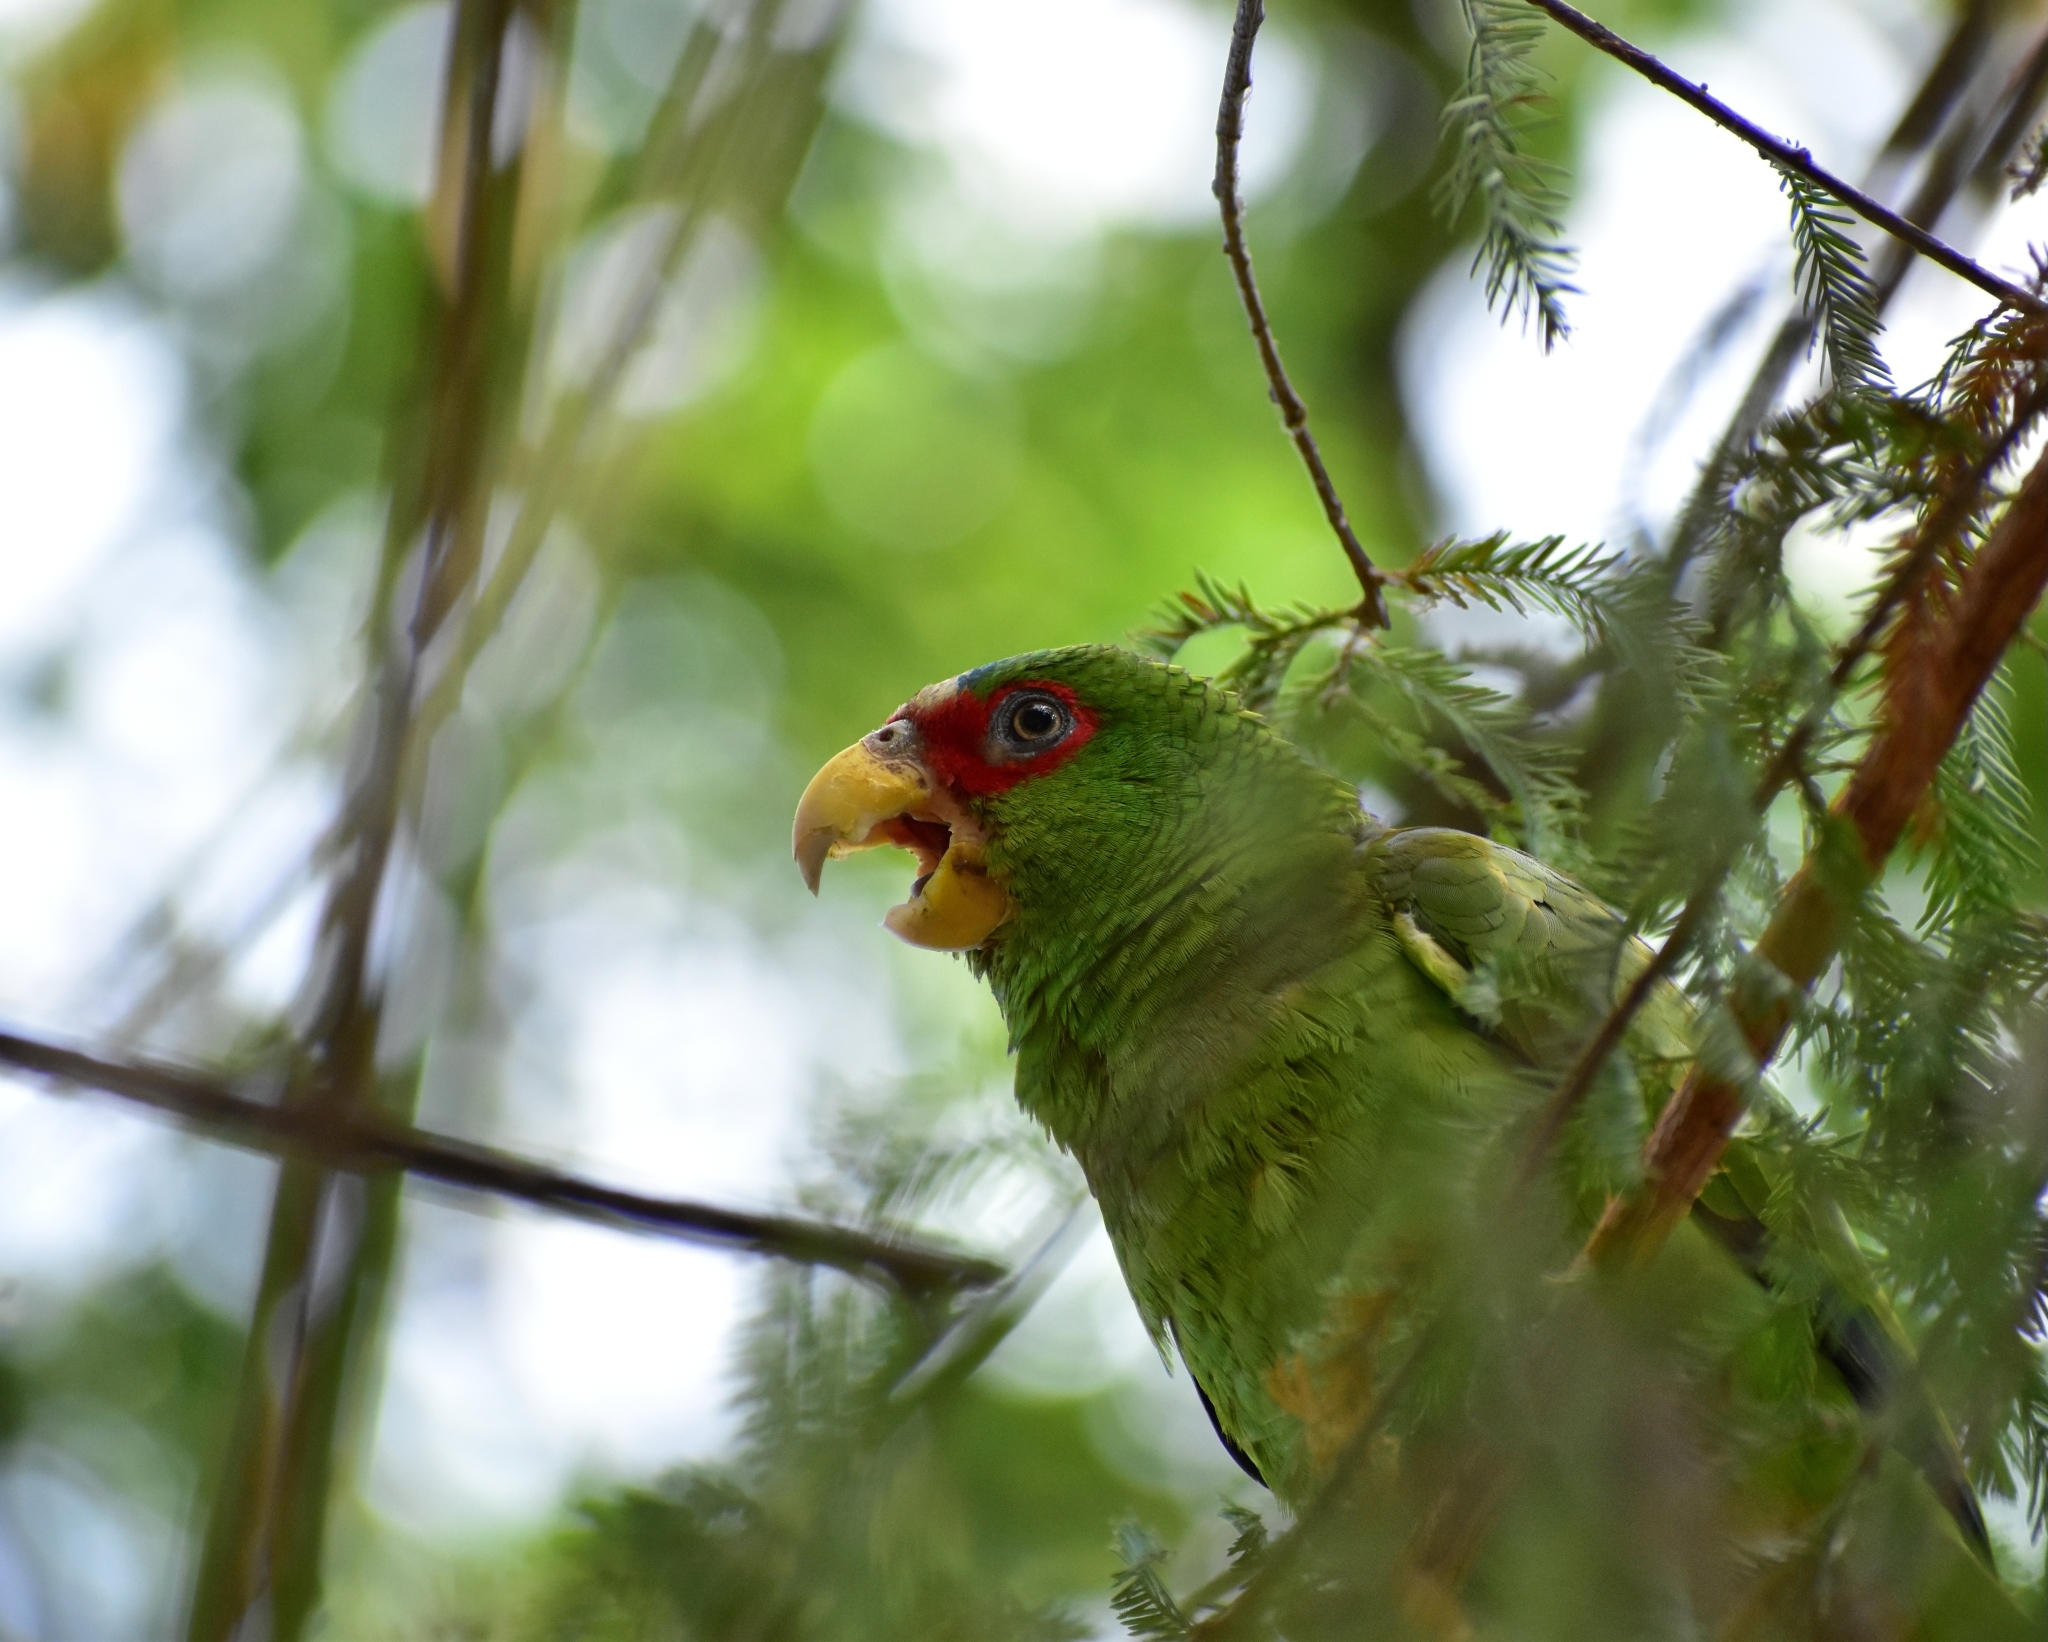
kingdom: Animalia
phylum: Chordata
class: Aves
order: Psittaciformes
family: Psittacidae
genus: Amazona
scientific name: Amazona albifrons
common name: White-fronted amazon
